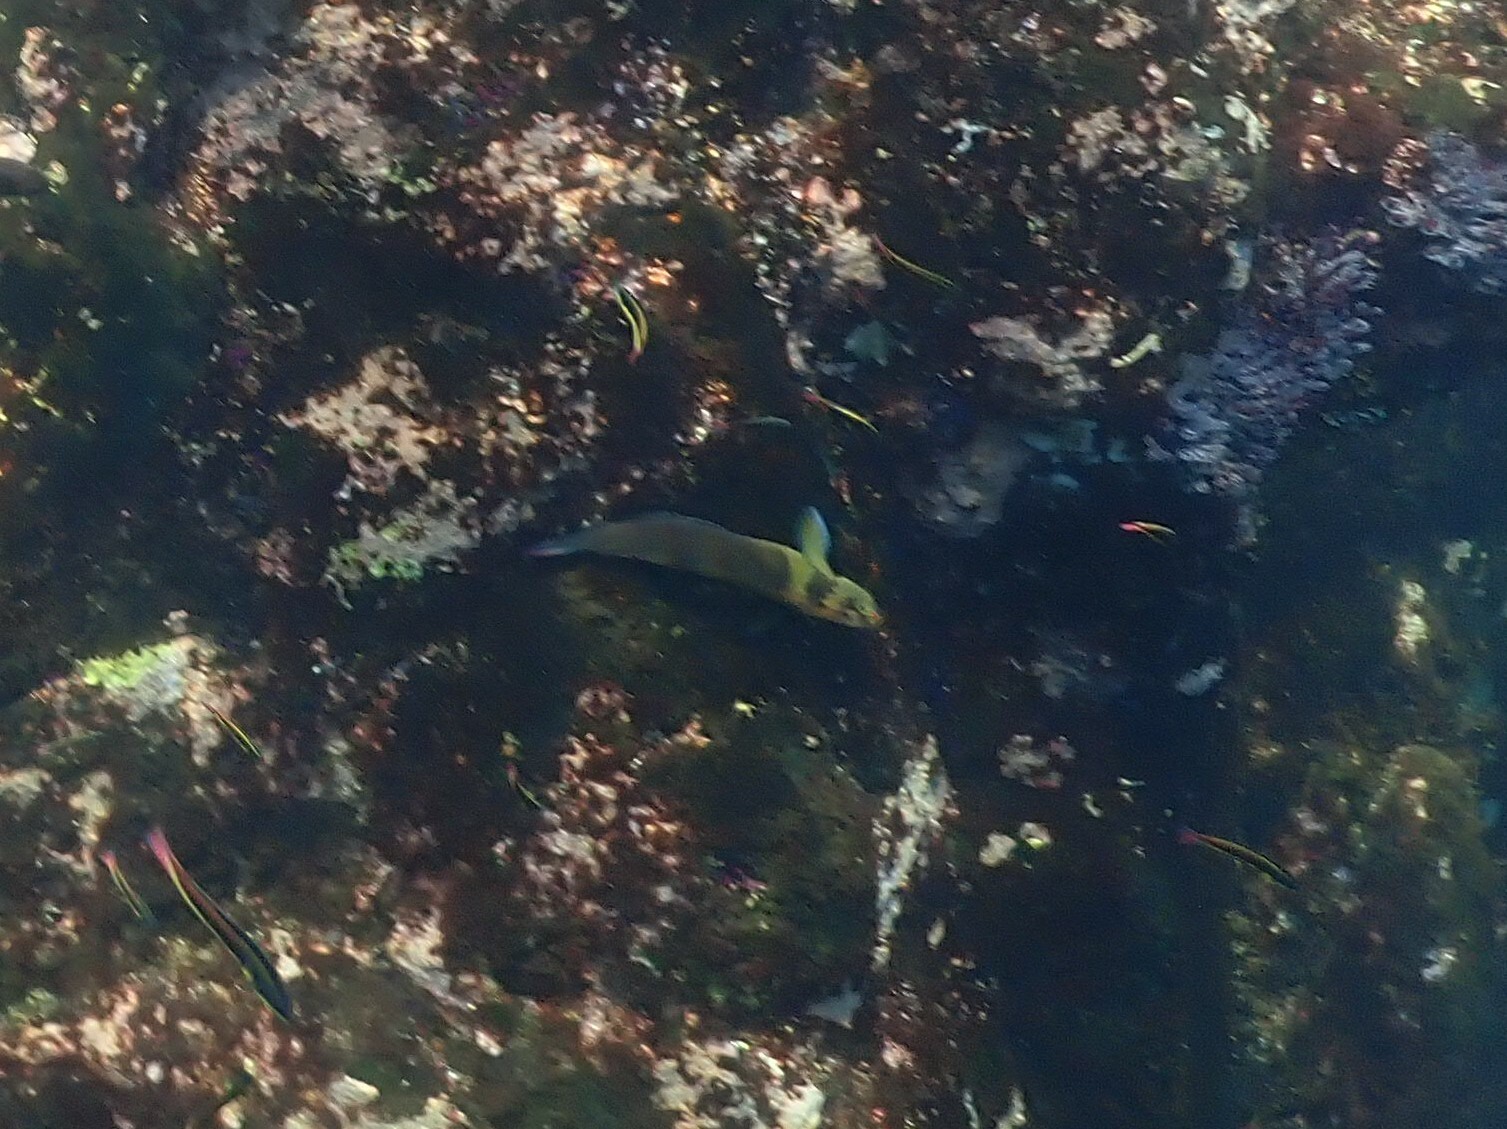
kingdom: Animalia
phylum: Chordata
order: Perciformes
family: Blenniidae
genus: Ophioblennius
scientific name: Ophioblennius steindachneri
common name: Panamic fanged blenny
